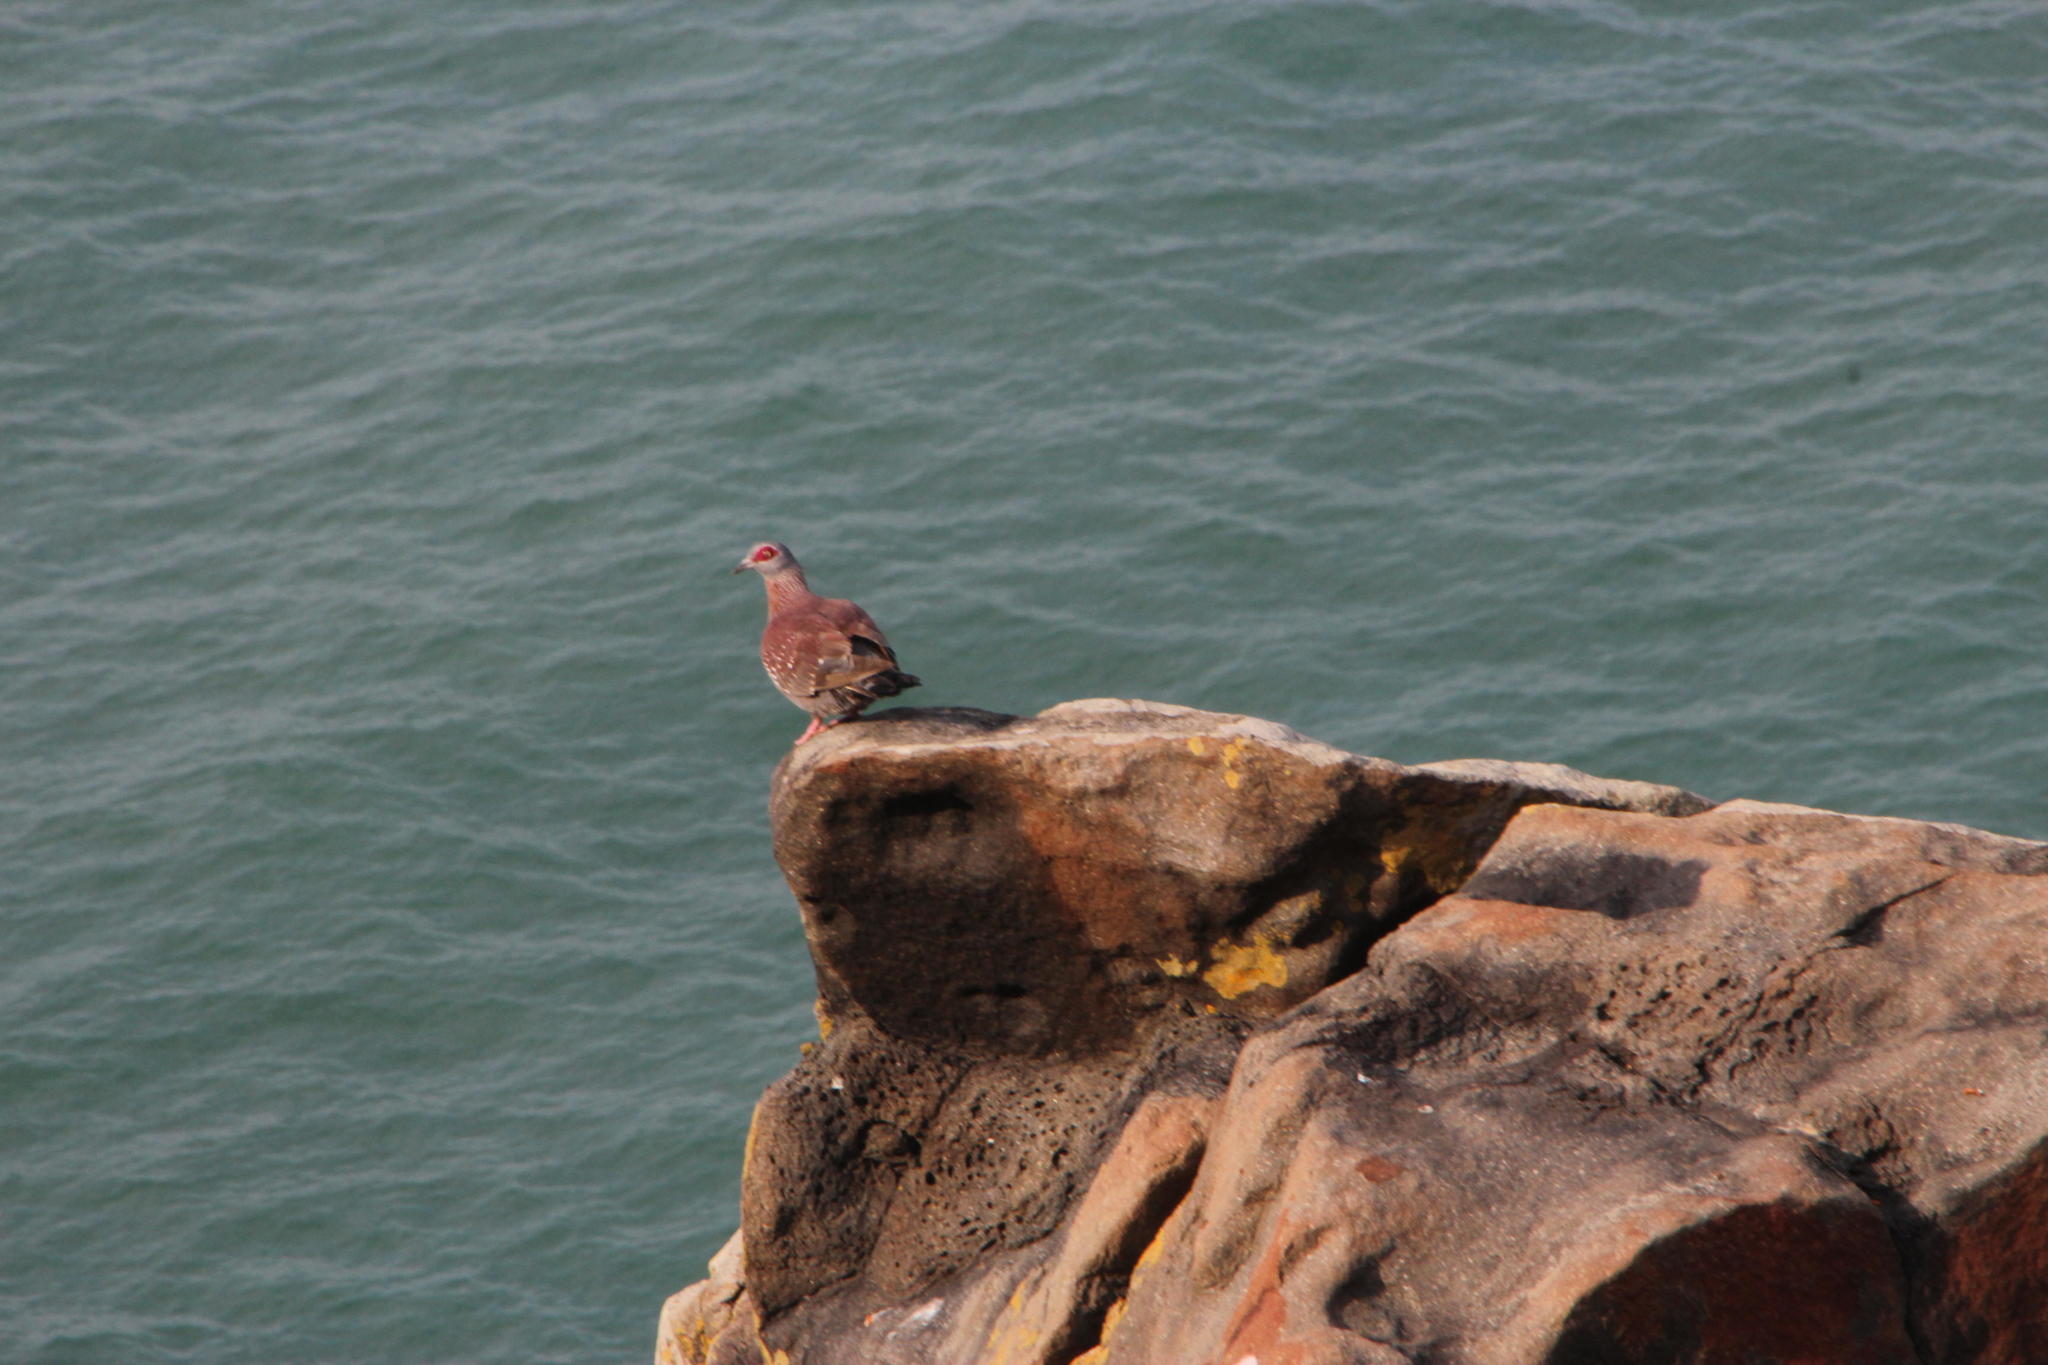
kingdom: Animalia
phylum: Chordata
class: Aves
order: Columbiformes
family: Columbidae
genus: Columba
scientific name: Columba guinea
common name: Speckled pigeon
